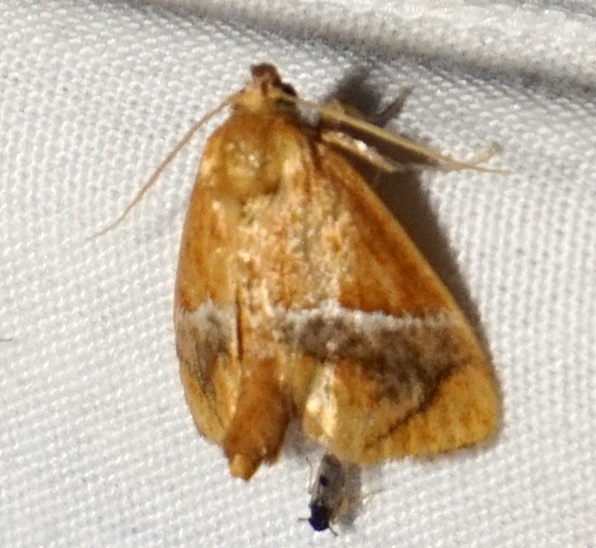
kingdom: Animalia
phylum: Arthropoda
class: Insecta
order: Lepidoptera
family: Limacodidae
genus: Lithacodes
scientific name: Lithacodes fasciola
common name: Yellow-shouldered slug moth
